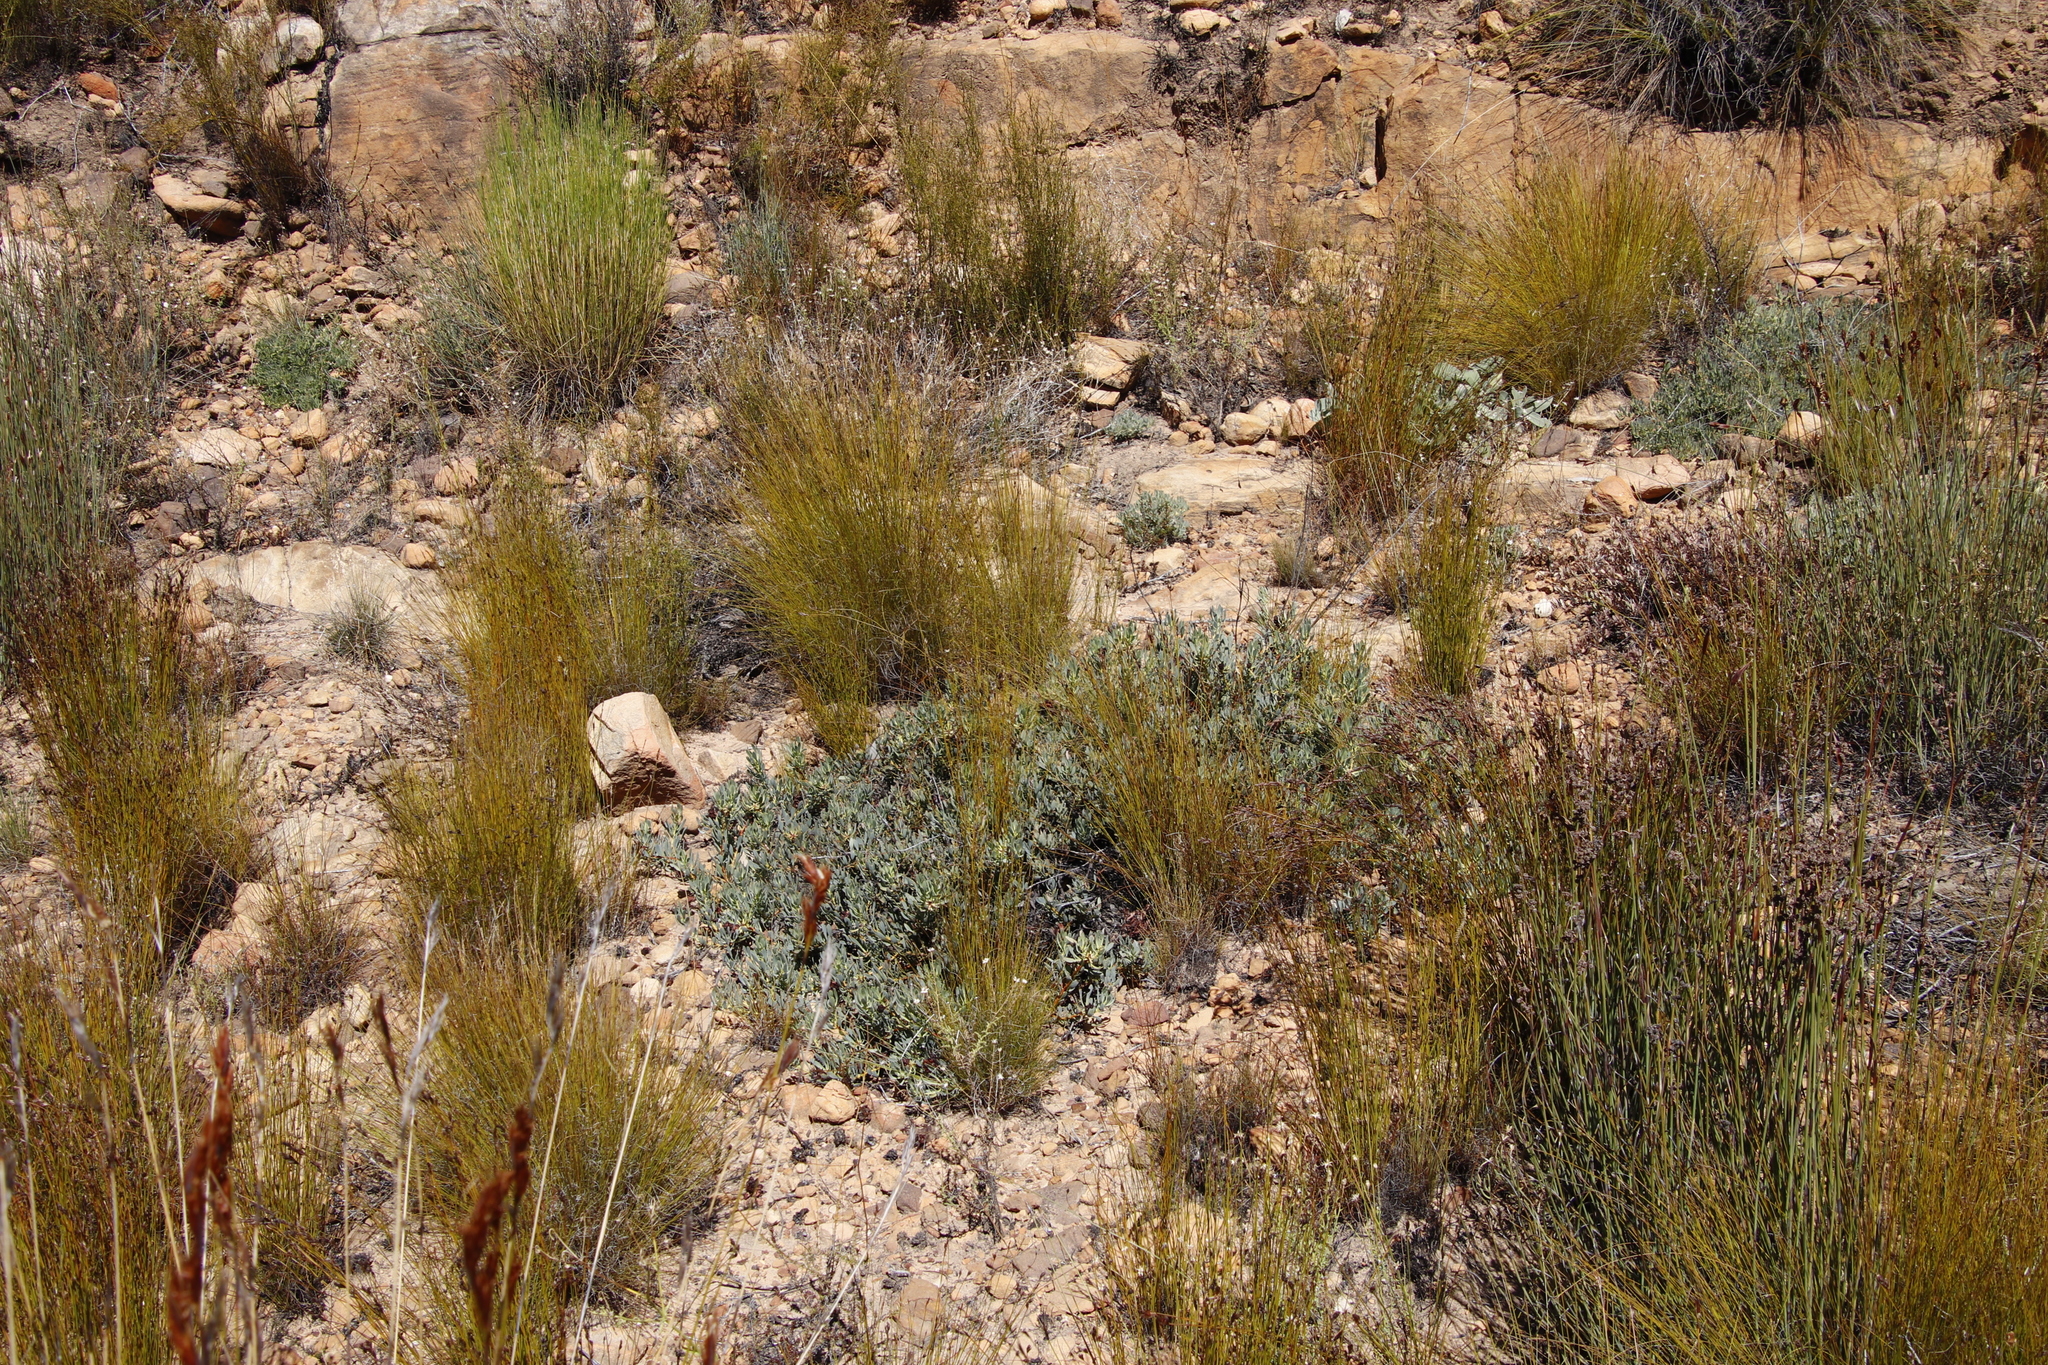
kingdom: Plantae
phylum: Tracheophyta
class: Magnoliopsida
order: Proteales
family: Proteaceae
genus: Leucadendron
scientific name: Leucadendron glaberrimum
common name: Common oily conebush
